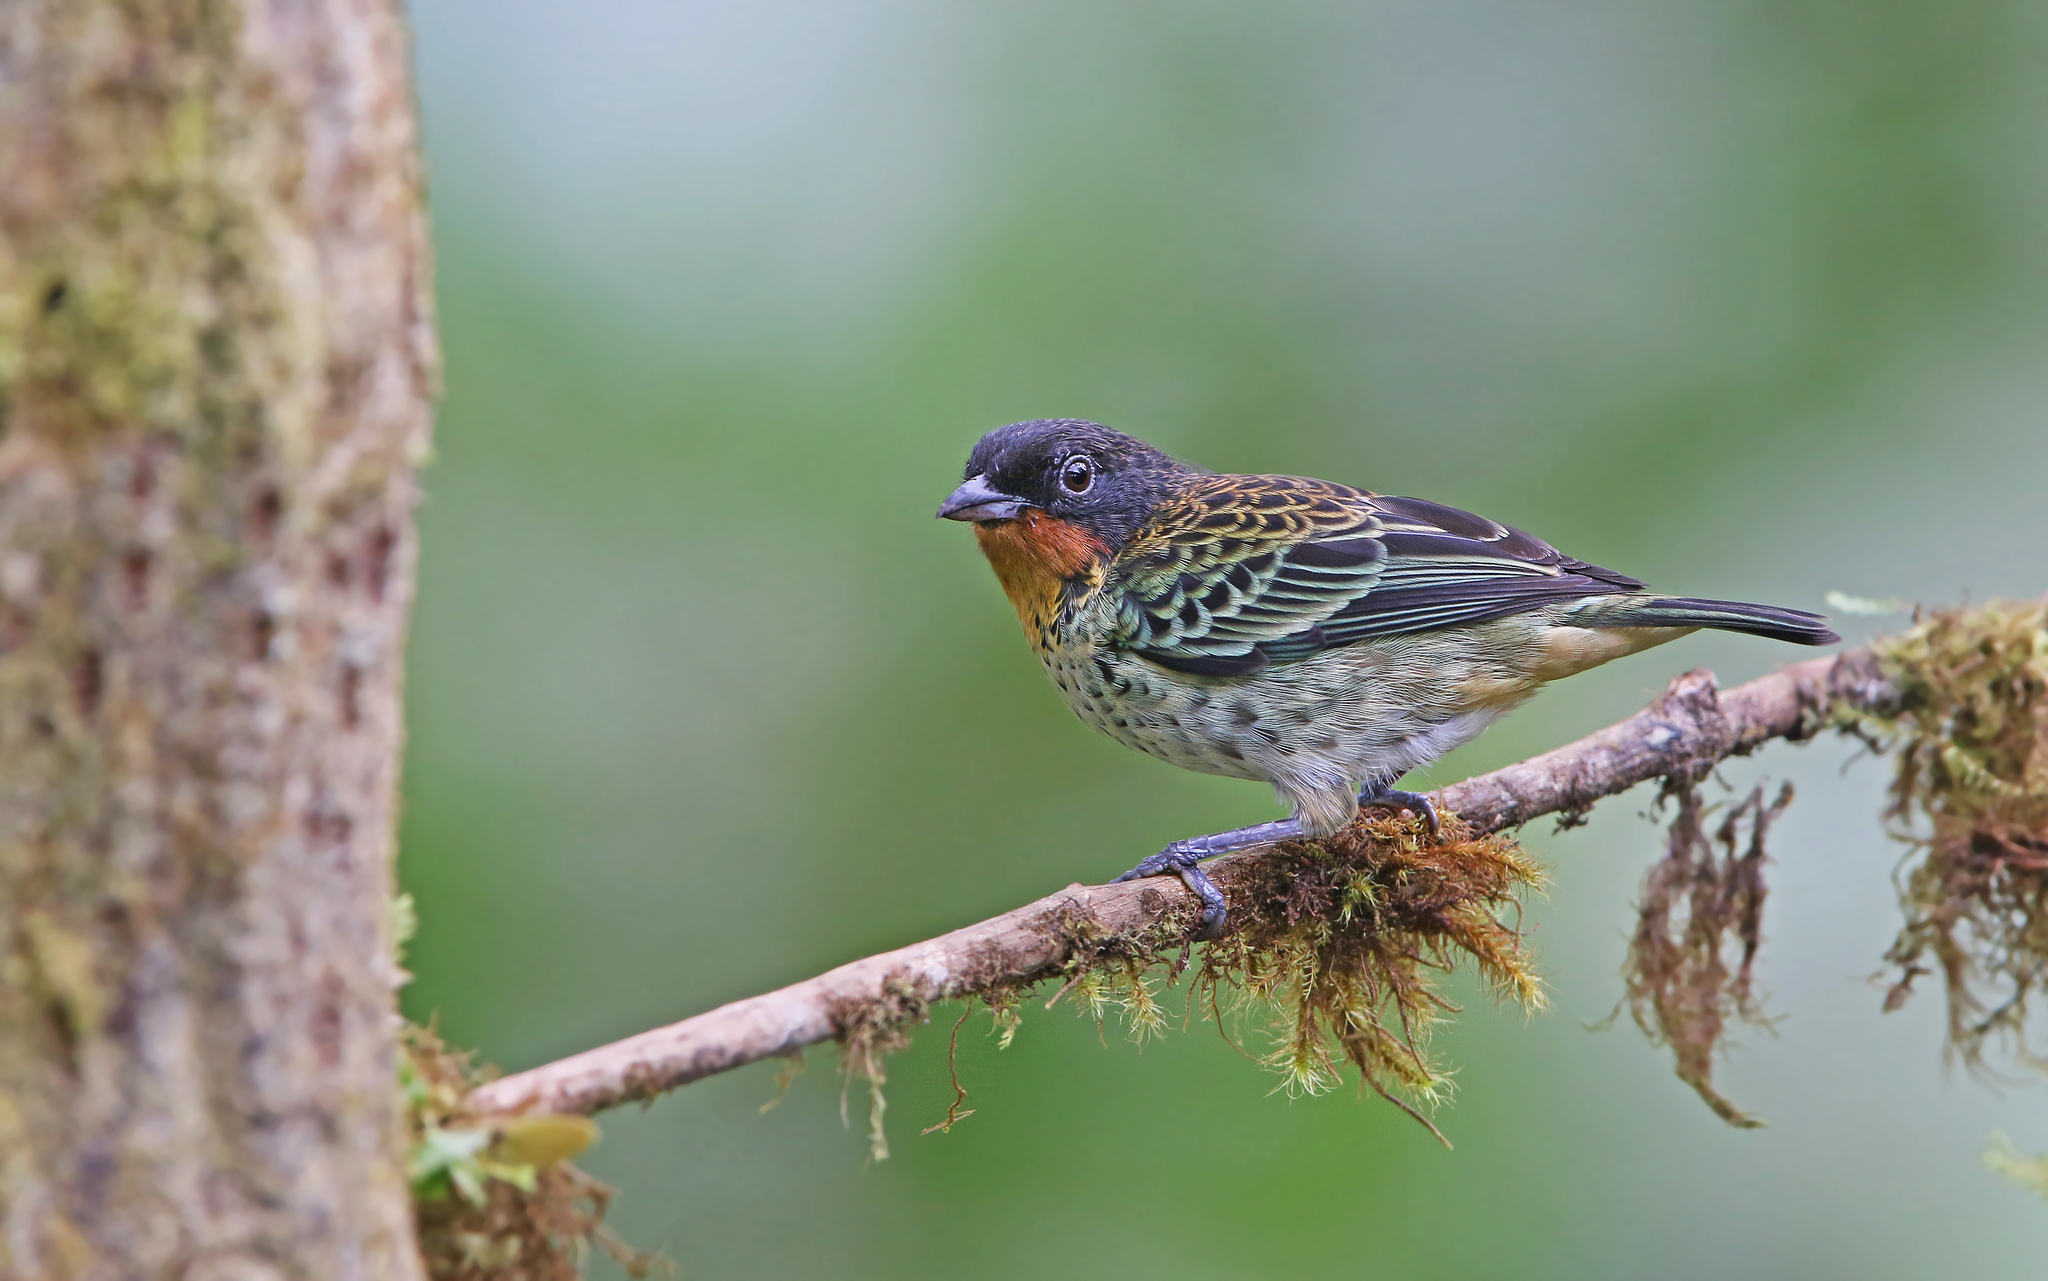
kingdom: Animalia
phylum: Chordata
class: Aves
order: Passeriformes
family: Thraupidae
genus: Ixothraupis
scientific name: Ixothraupis rufigula
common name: Rufous-throated tanager
